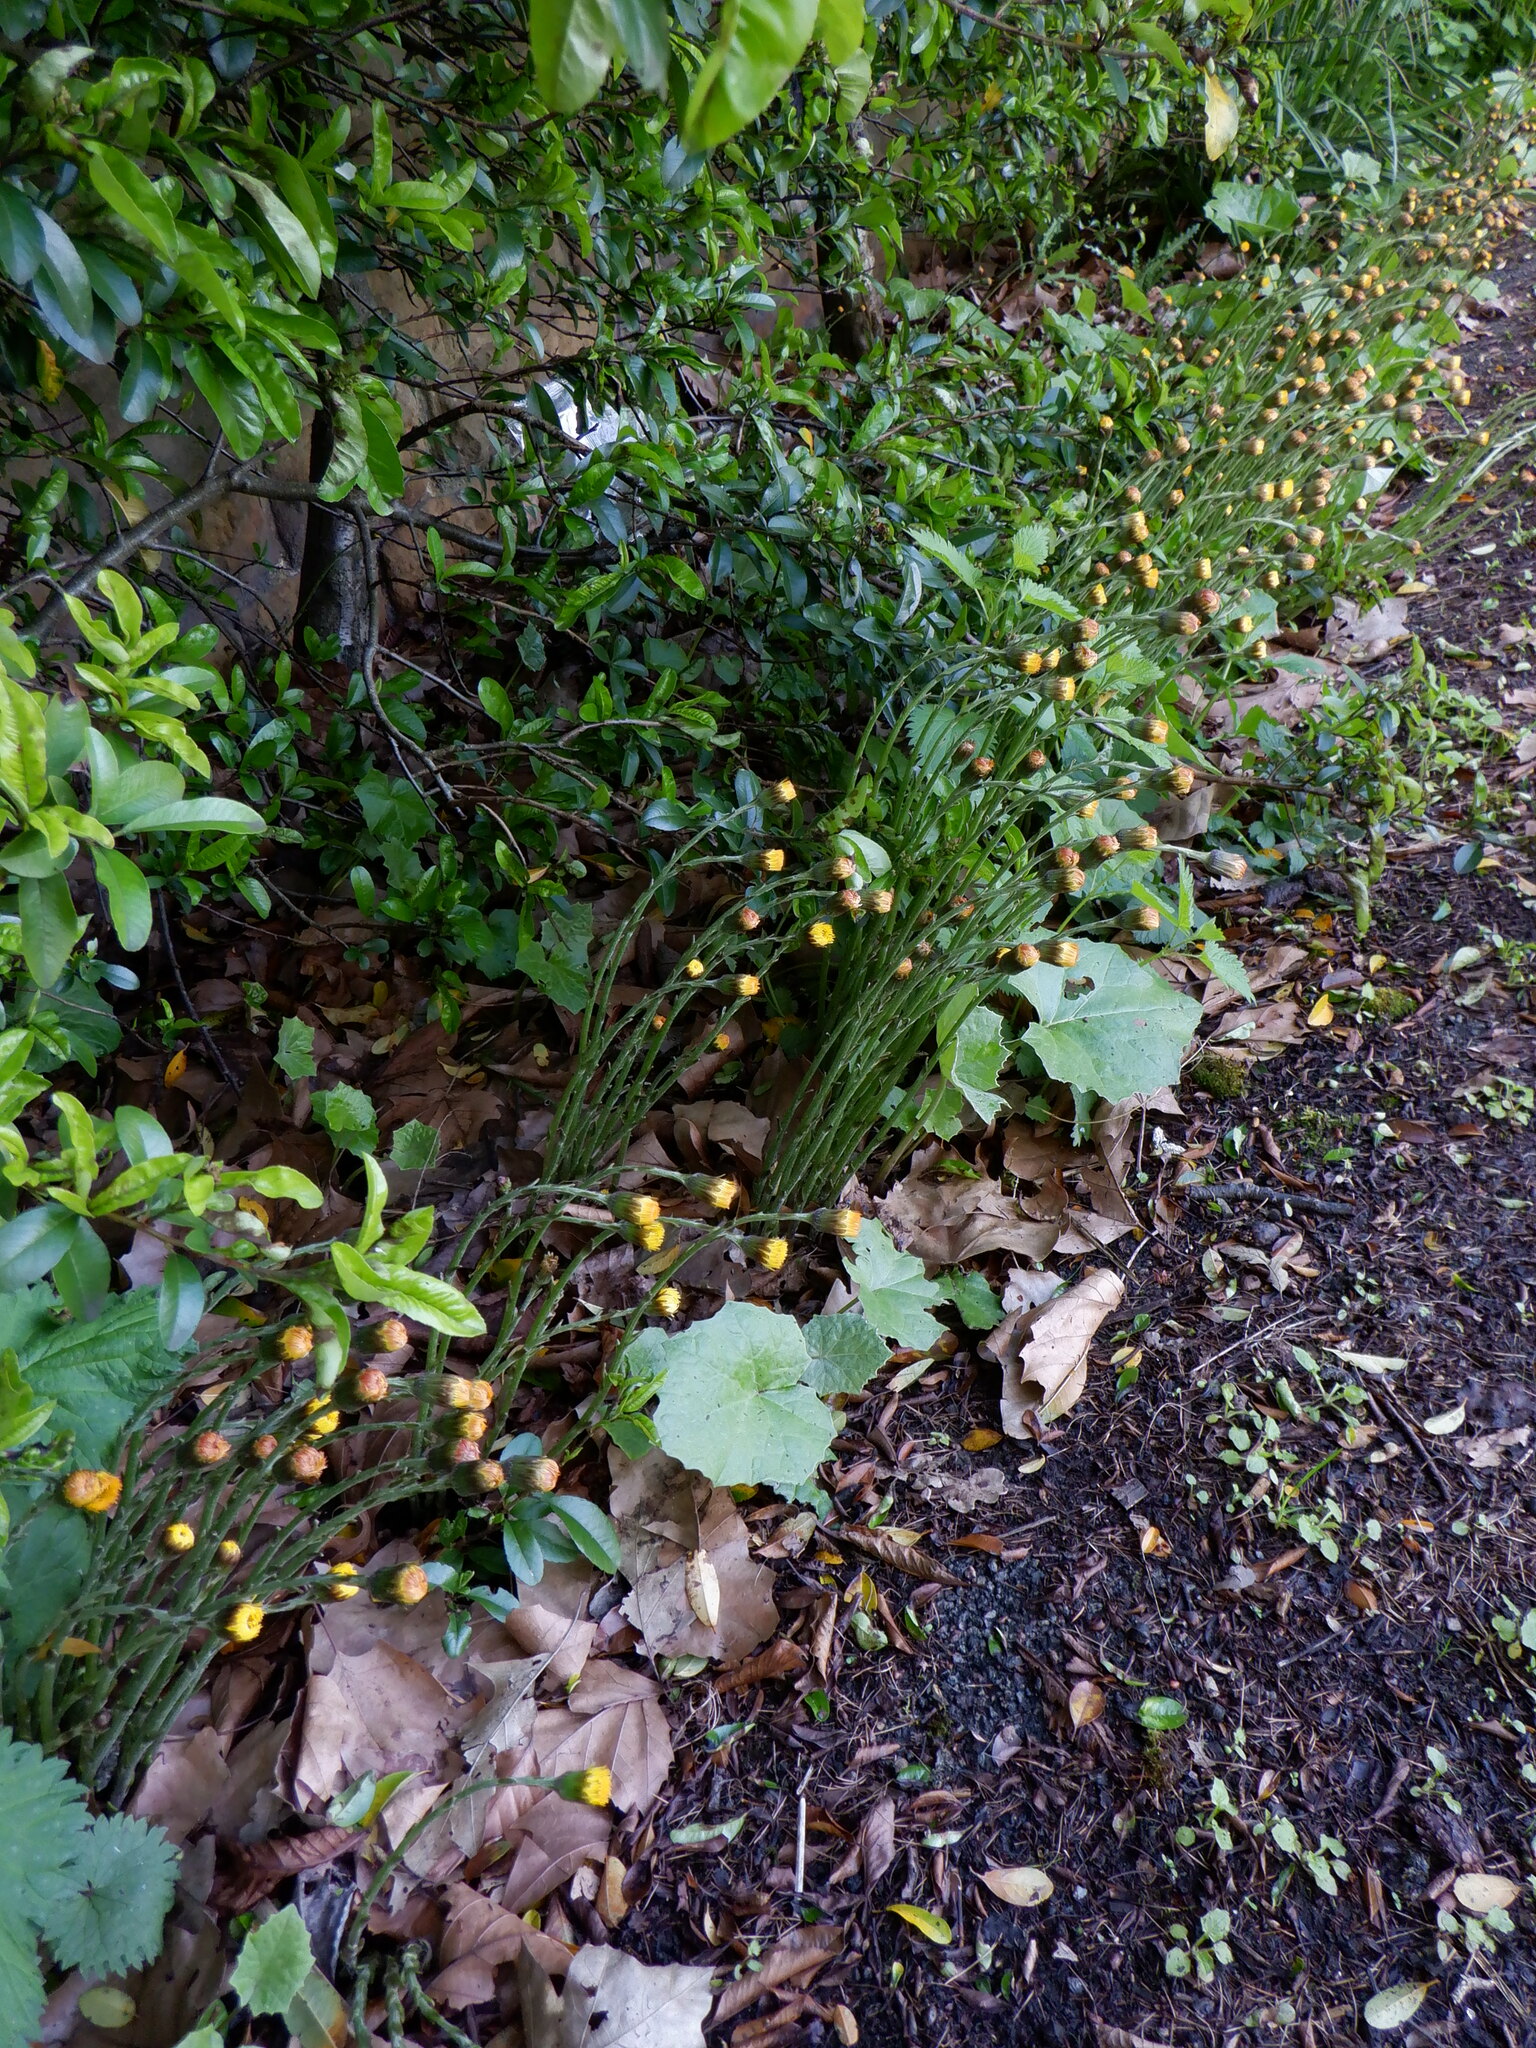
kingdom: Plantae
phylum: Tracheophyta
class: Magnoliopsida
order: Asterales
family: Asteraceae
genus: Tussilago
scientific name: Tussilago farfara
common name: Coltsfoot
